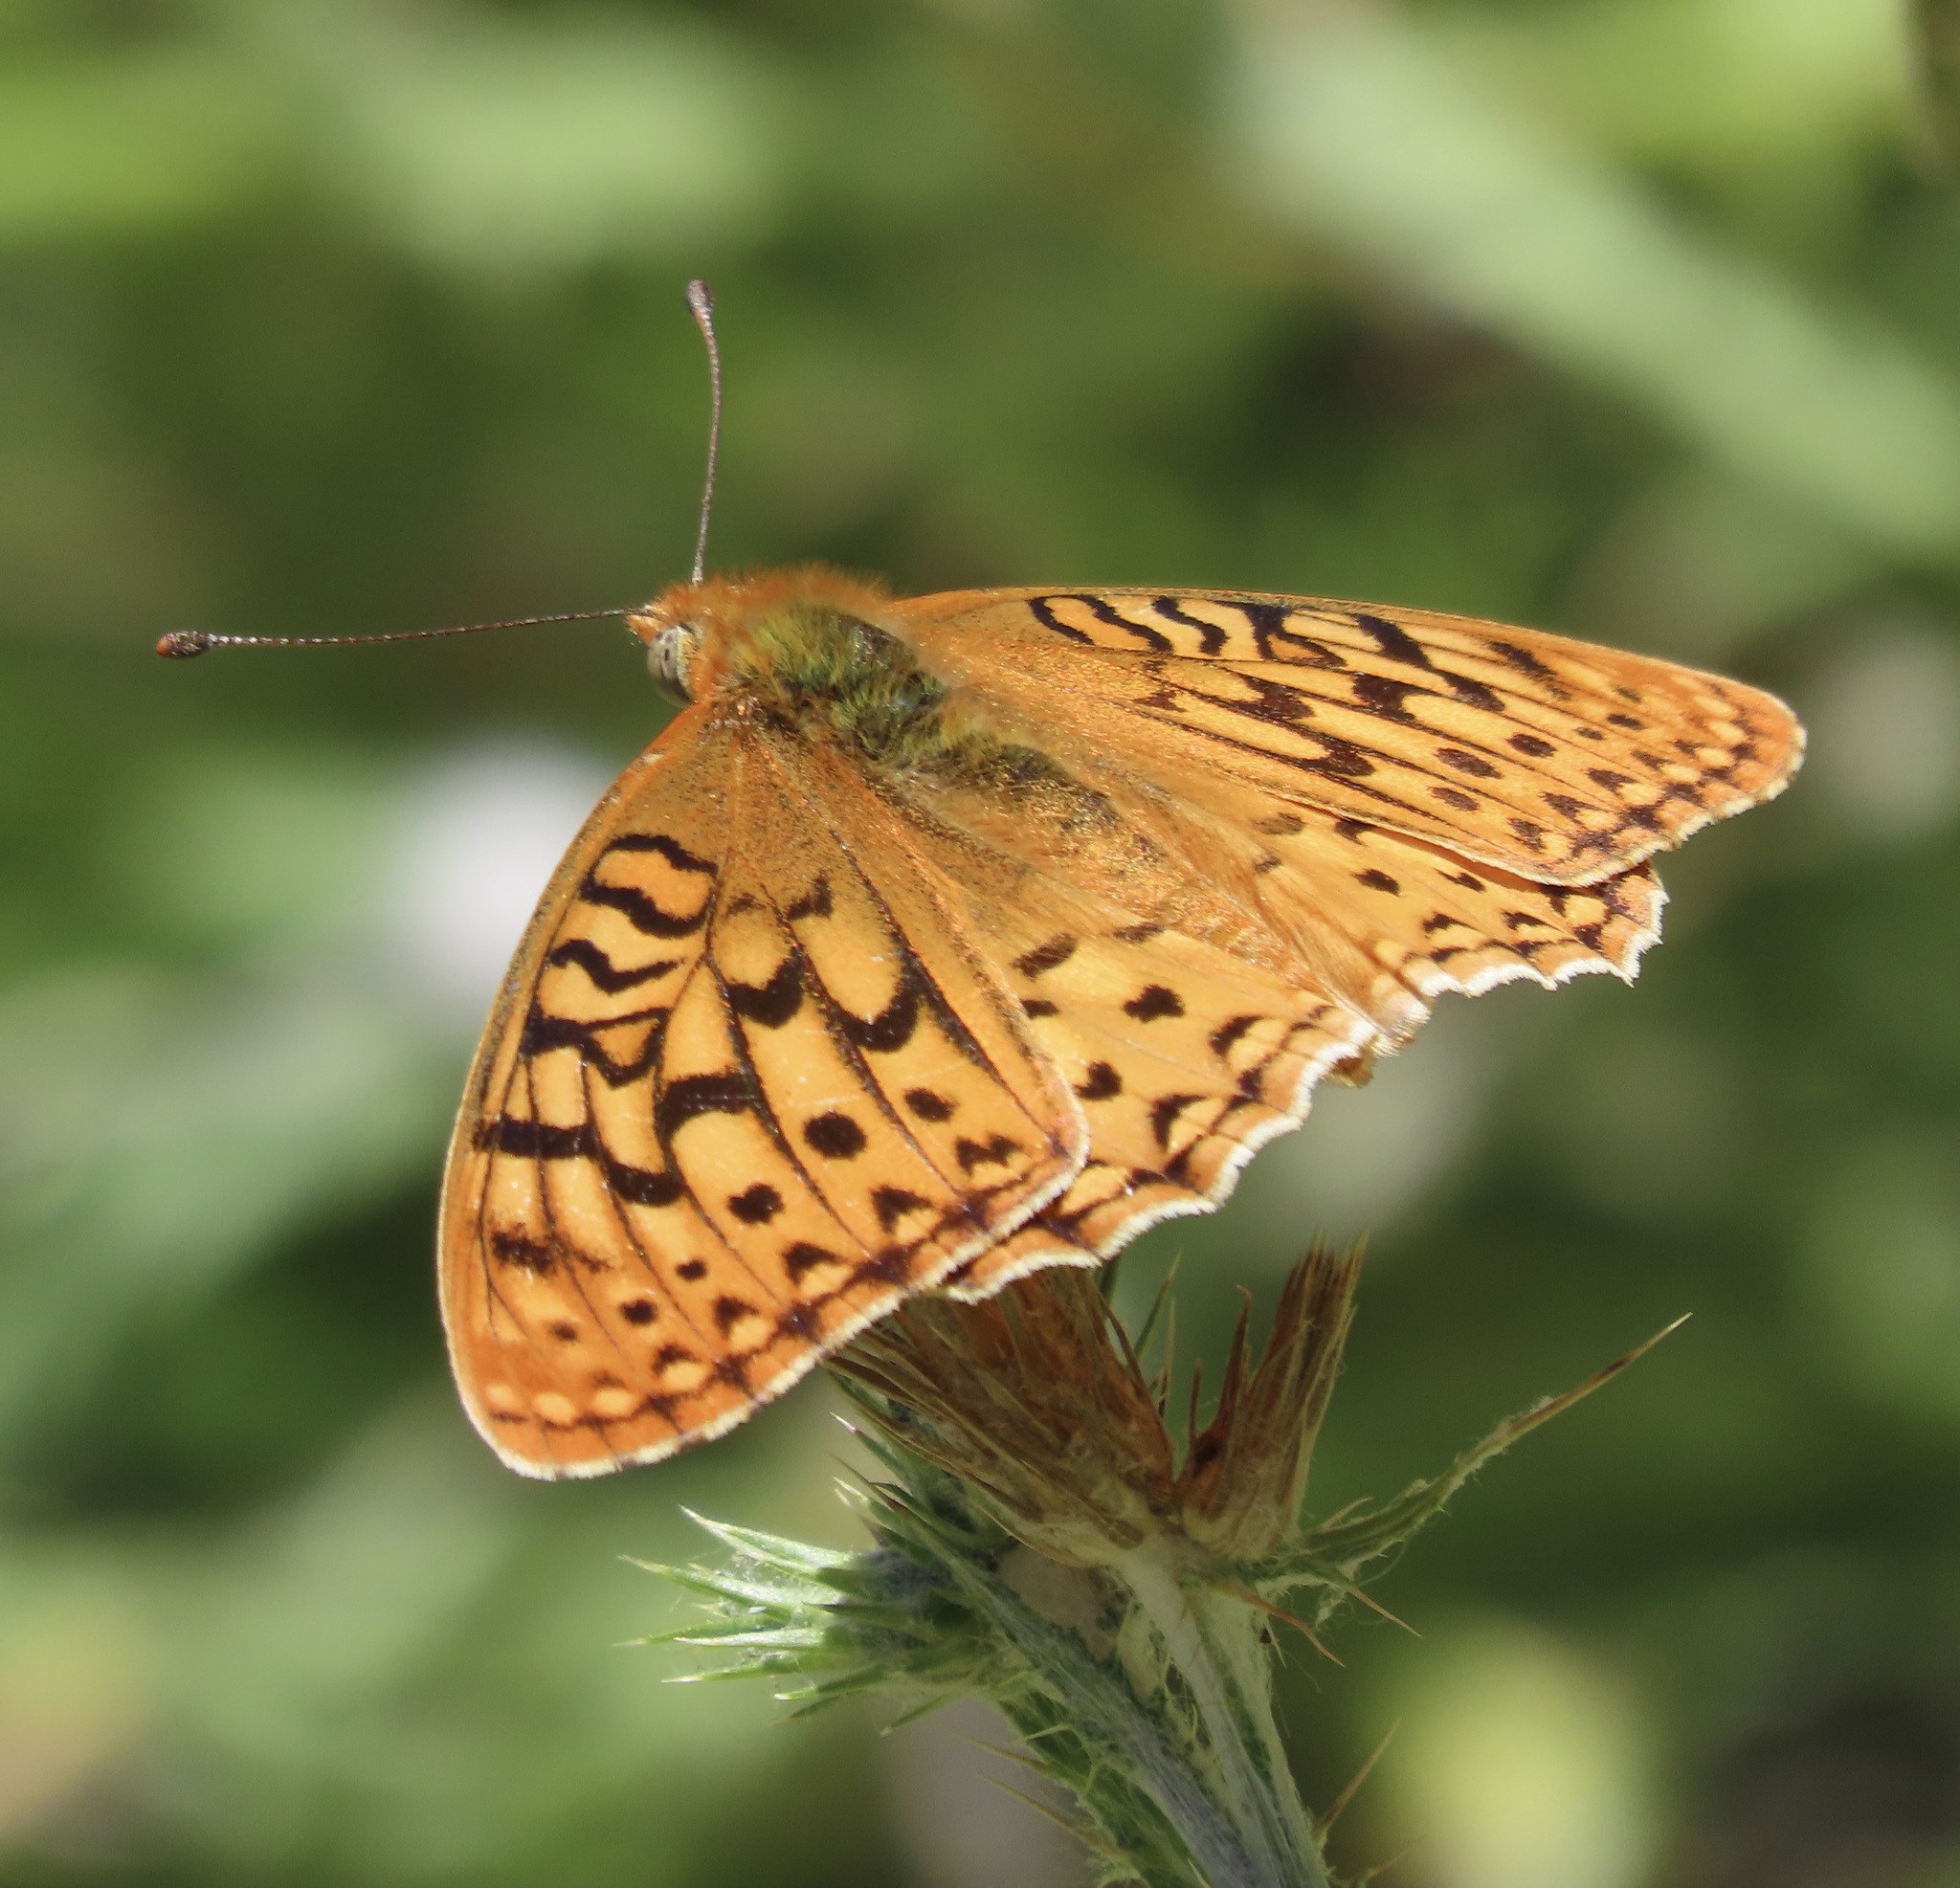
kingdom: Animalia
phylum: Arthropoda
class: Insecta
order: Lepidoptera
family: Nymphalidae
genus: Argynnis
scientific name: Argynnis coronis
